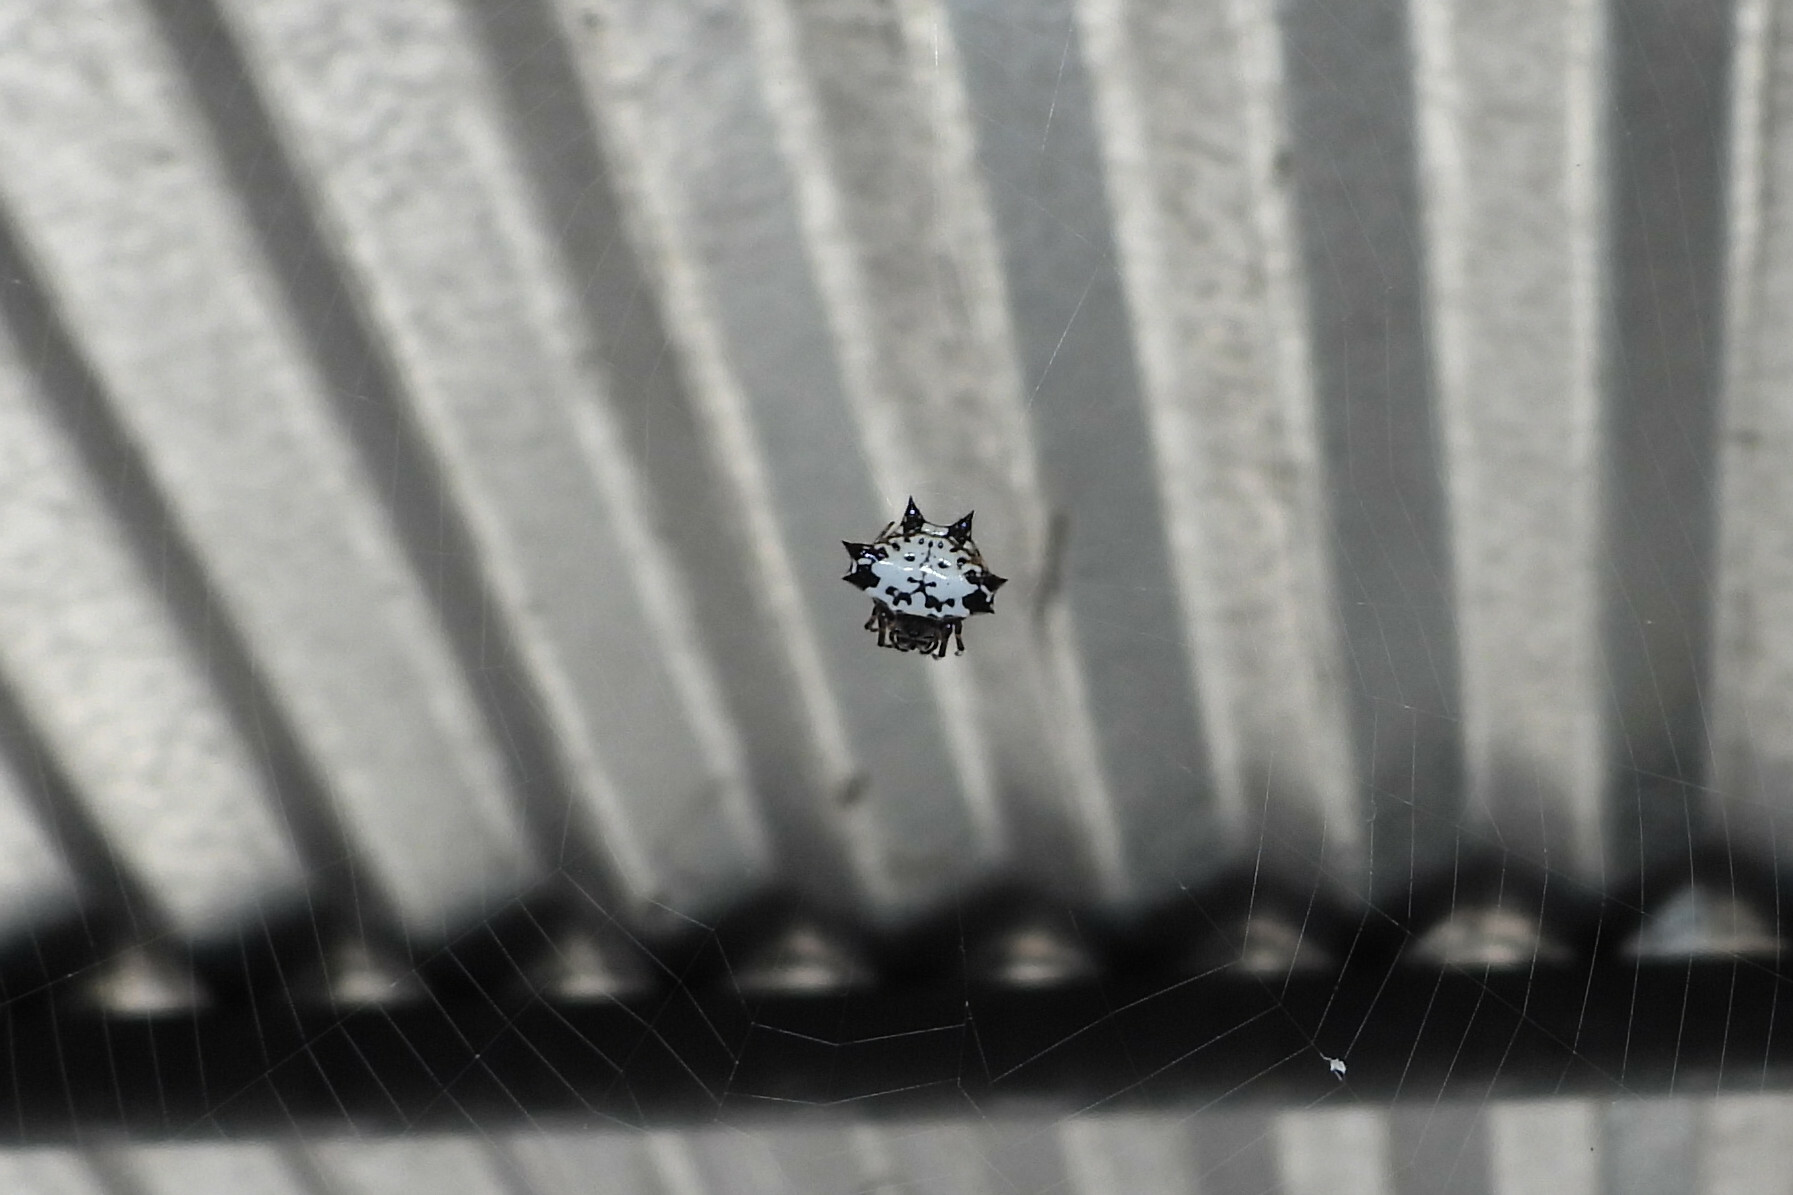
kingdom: Animalia
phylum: Arthropoda
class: Arachnida
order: Araneae
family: Araneidae
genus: Gasteracantha
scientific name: Gasteracantha kuhli
